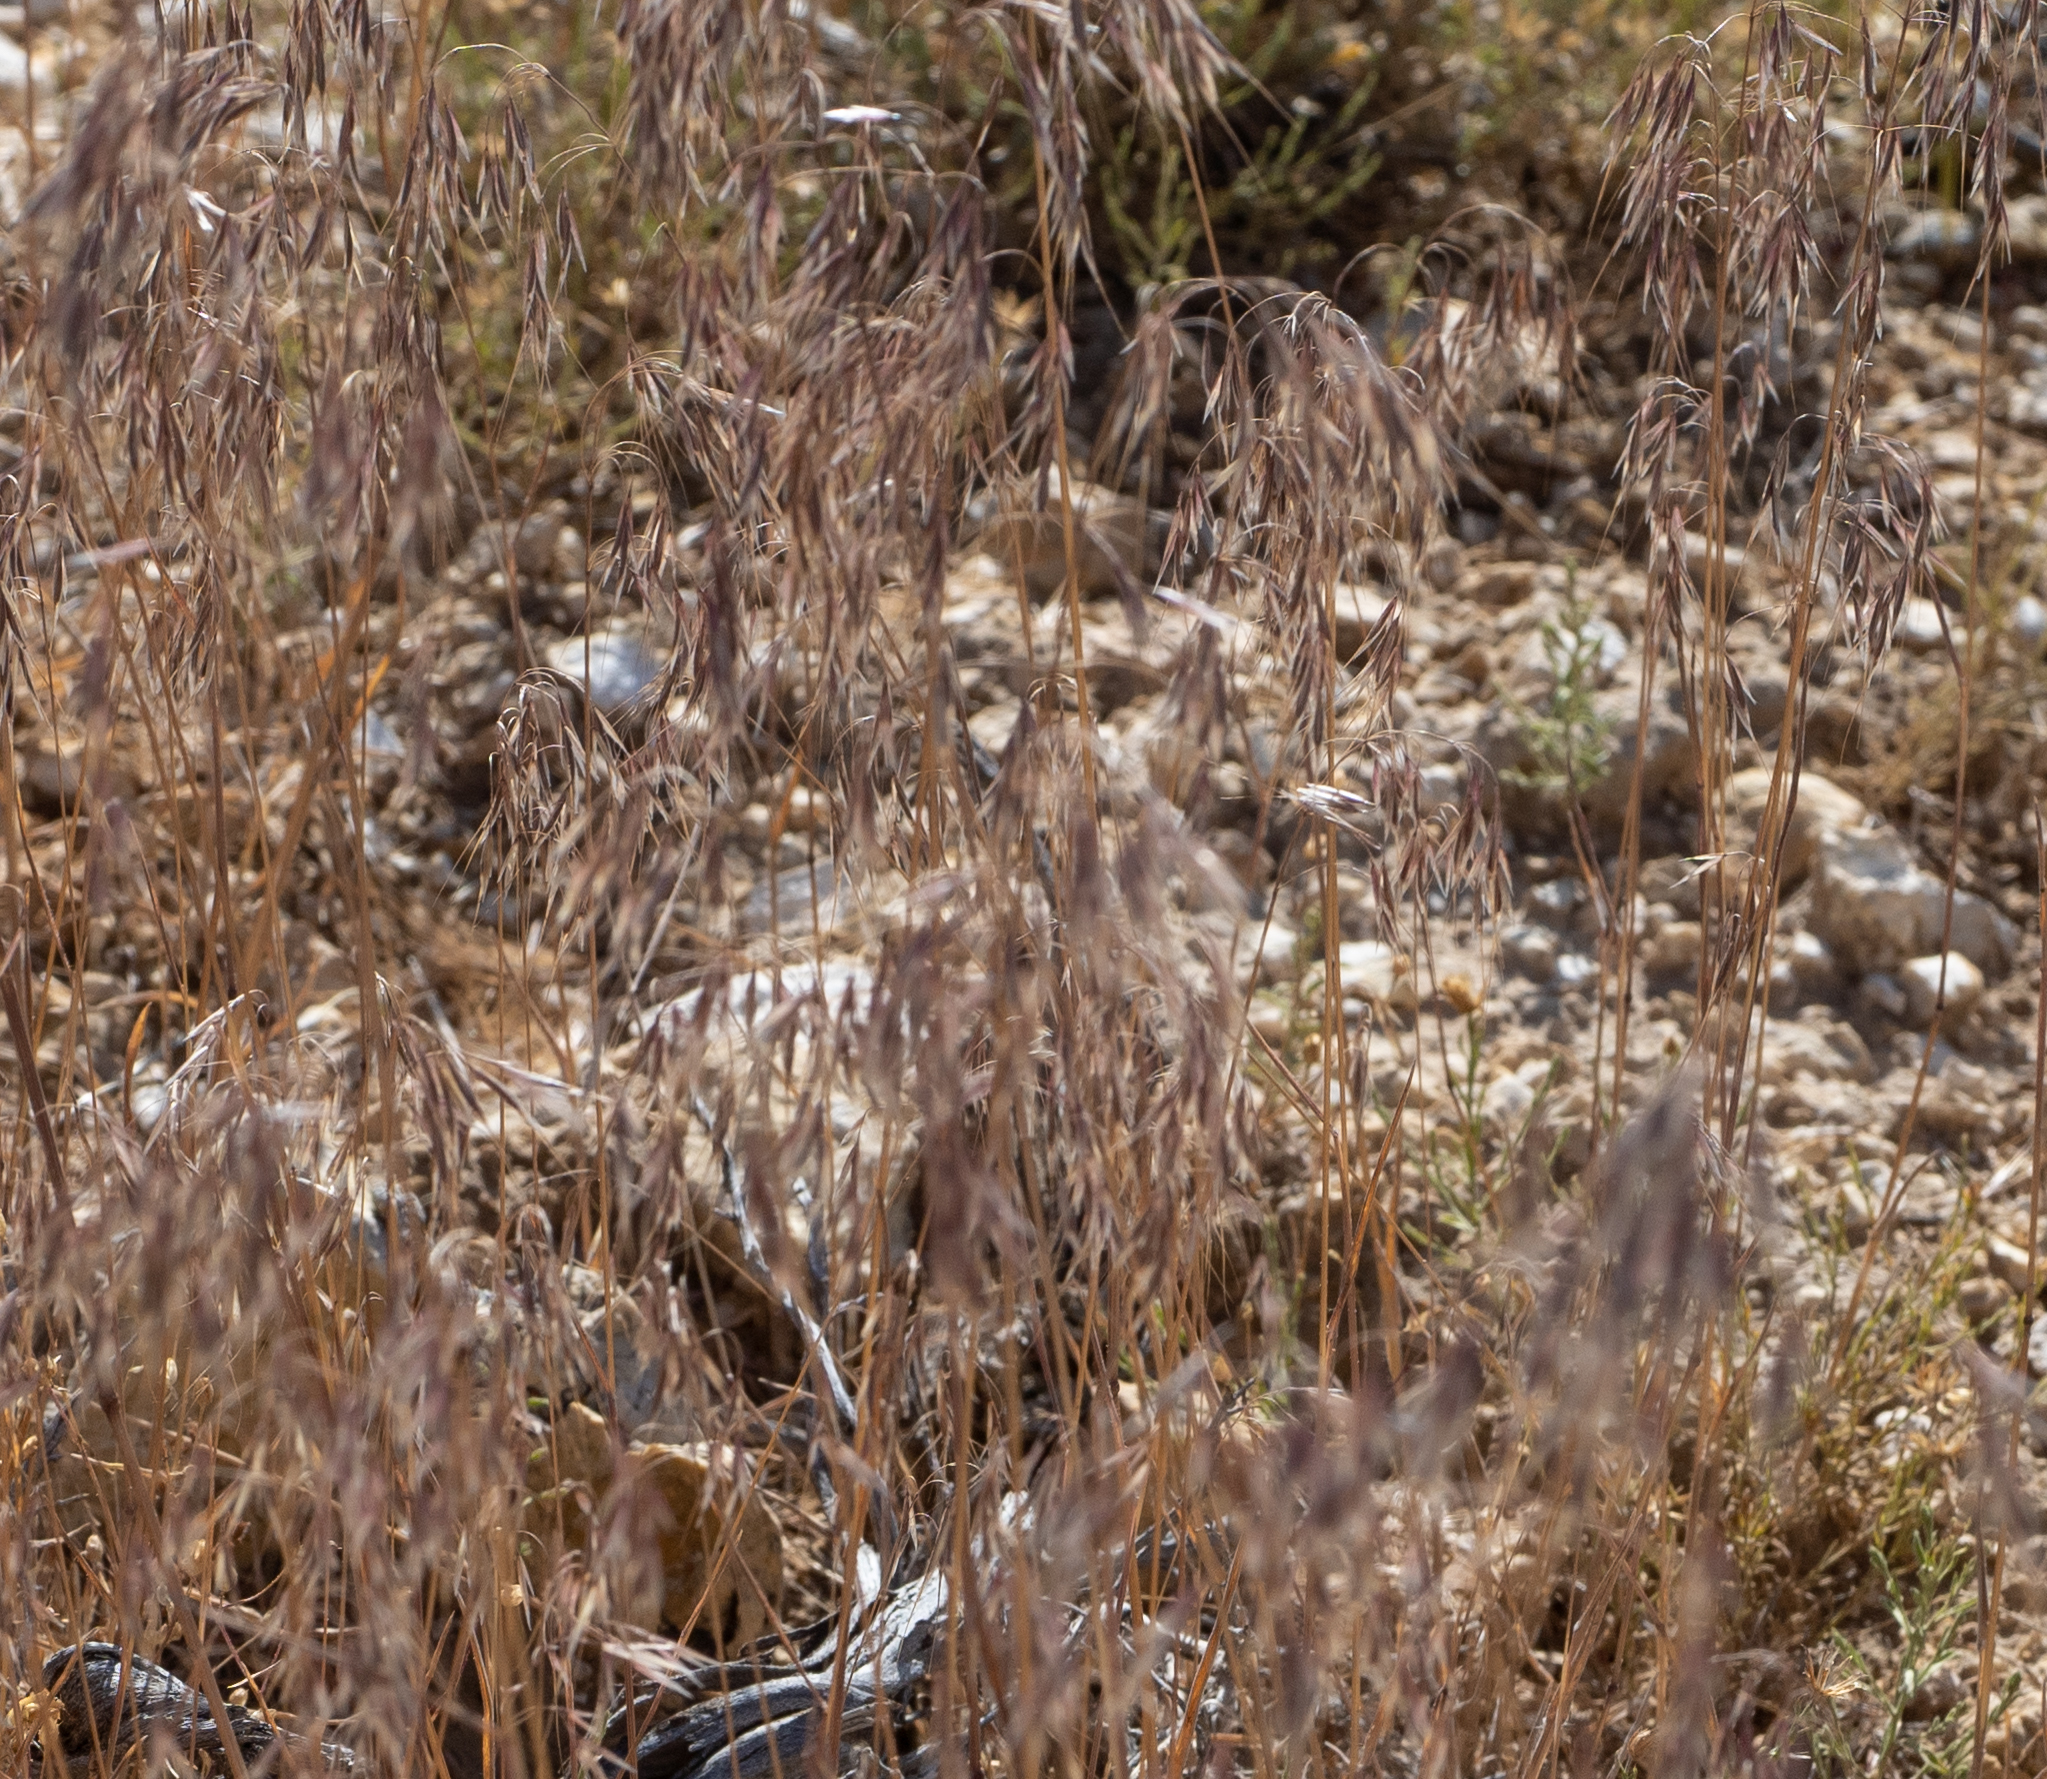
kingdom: Plantae
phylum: Tracheophyta
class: Liliopsida
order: Poales
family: Poaceae
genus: Bromus
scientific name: Bromus tectorum
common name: Cheatgrass
